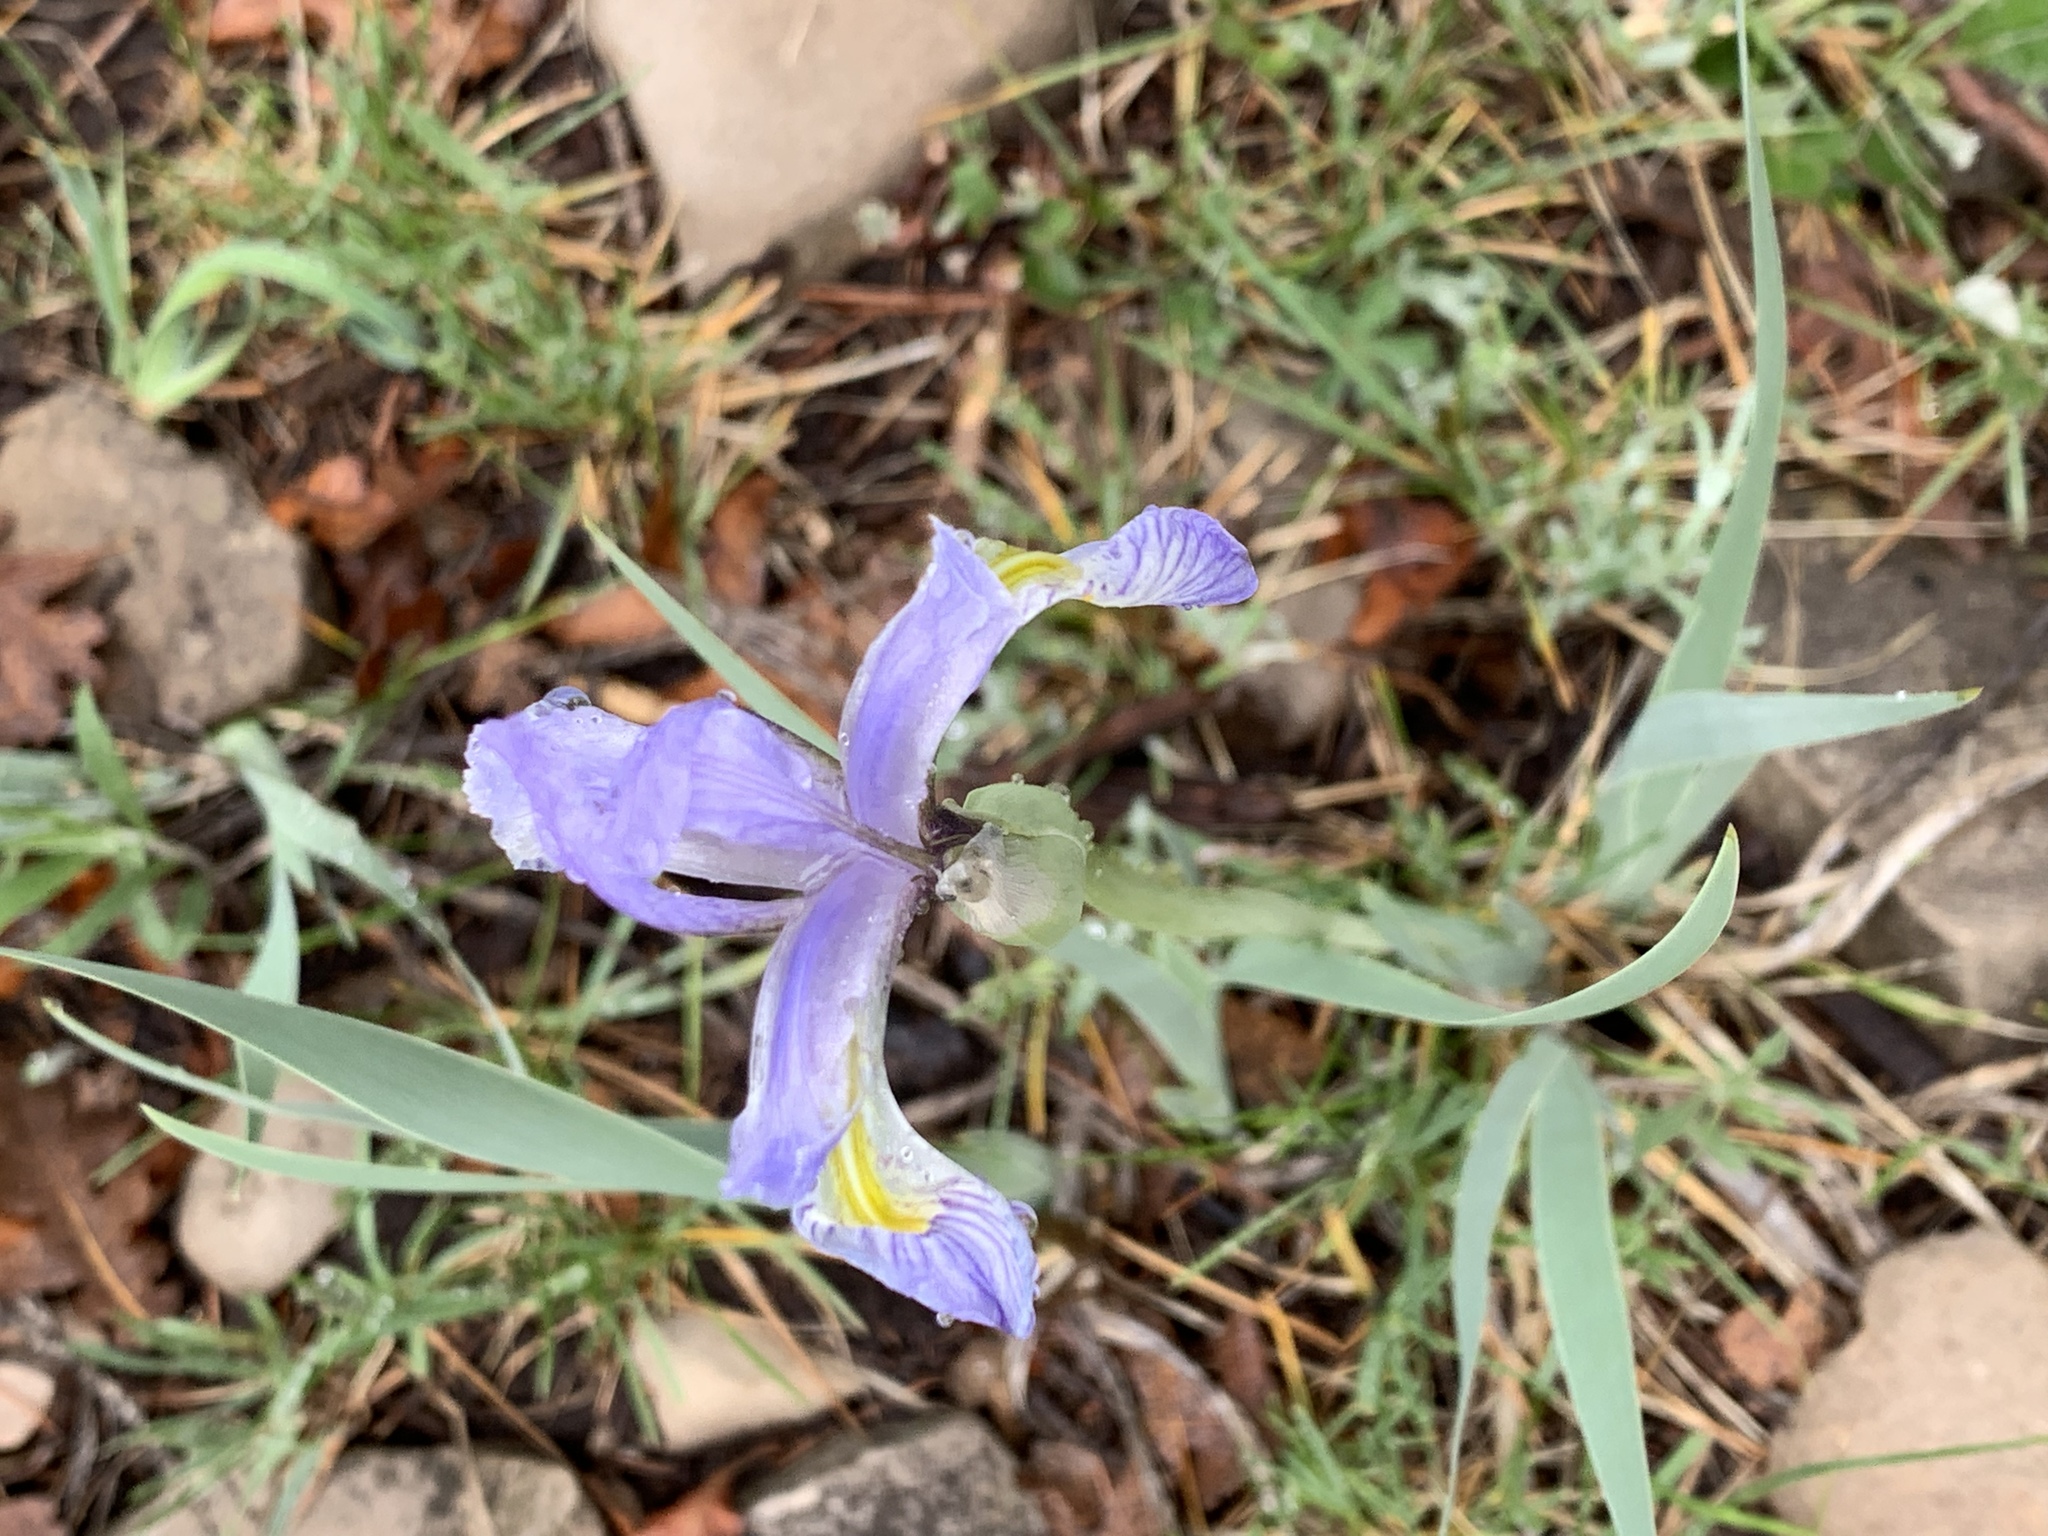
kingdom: Plantae
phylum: Tracheophyta
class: Liliopsida
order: Asparagales
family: Iridaceae
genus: Iris
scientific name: Iris missouriensis
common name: Rocky mountain iris
